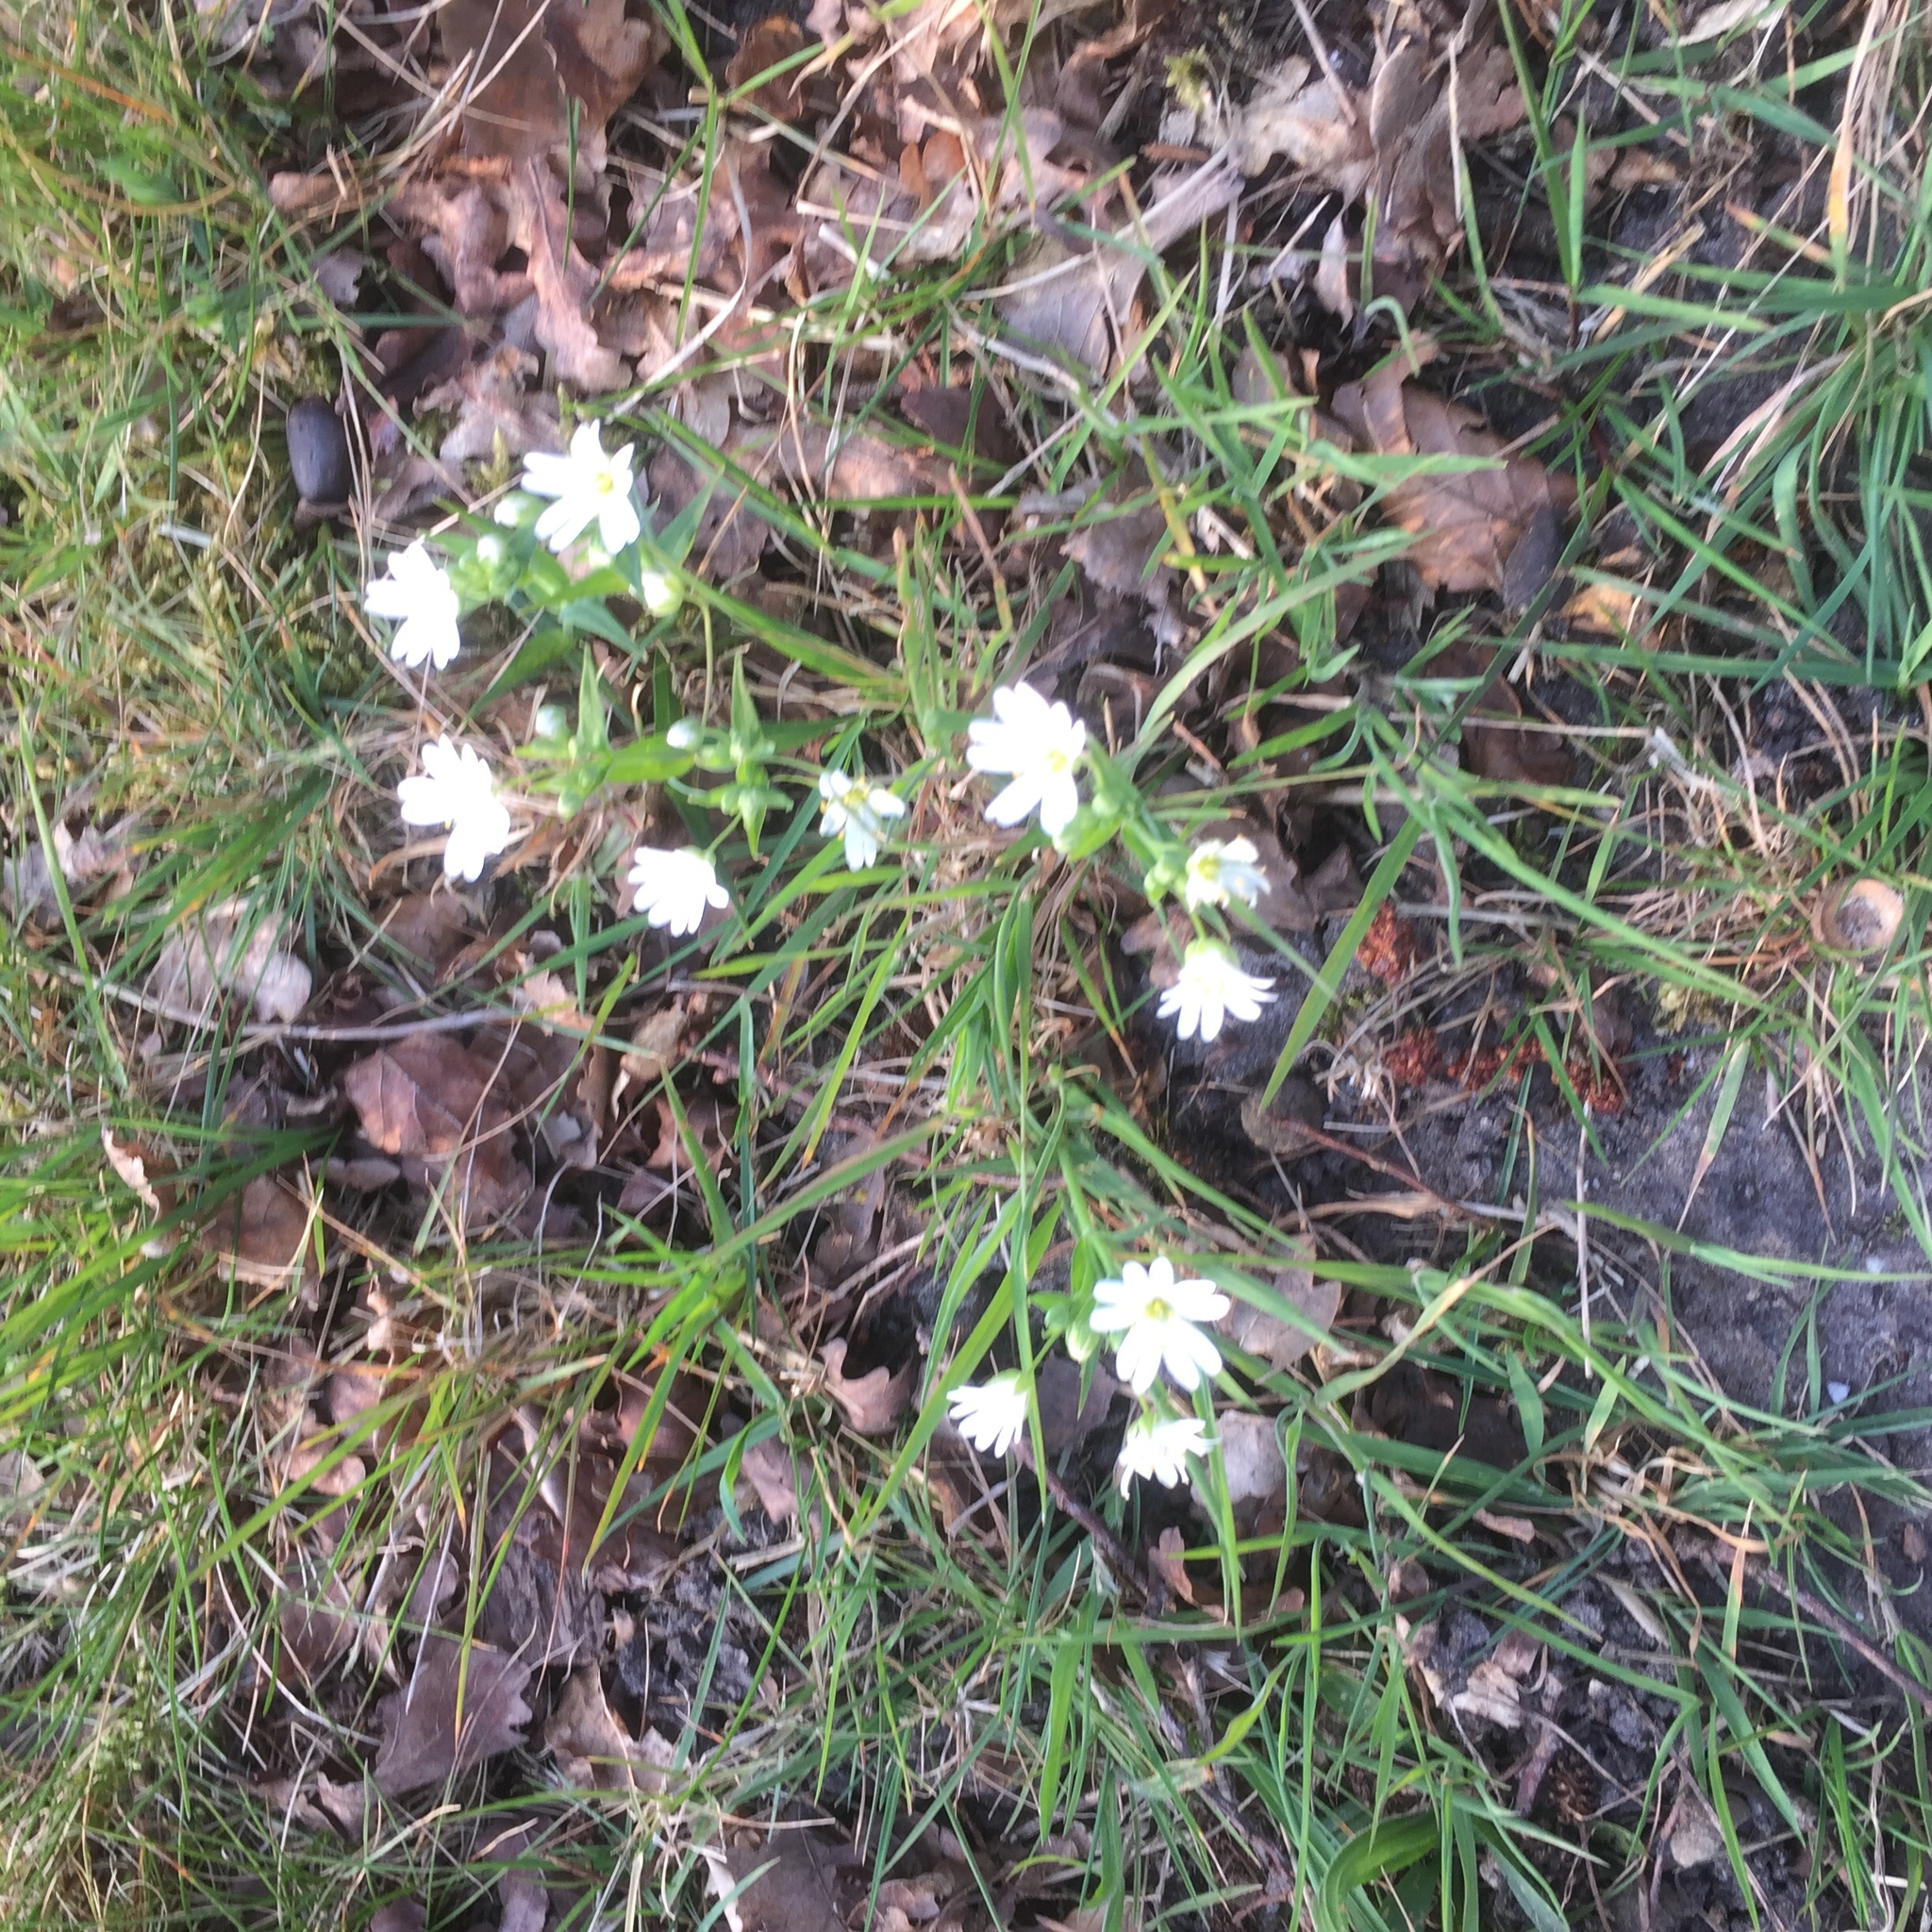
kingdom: Plantae
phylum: Tracheophyta
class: Magnoliopsida
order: Caryophyllales
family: Caryophyllaceae
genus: Rabelera
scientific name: Rabelera holostea
